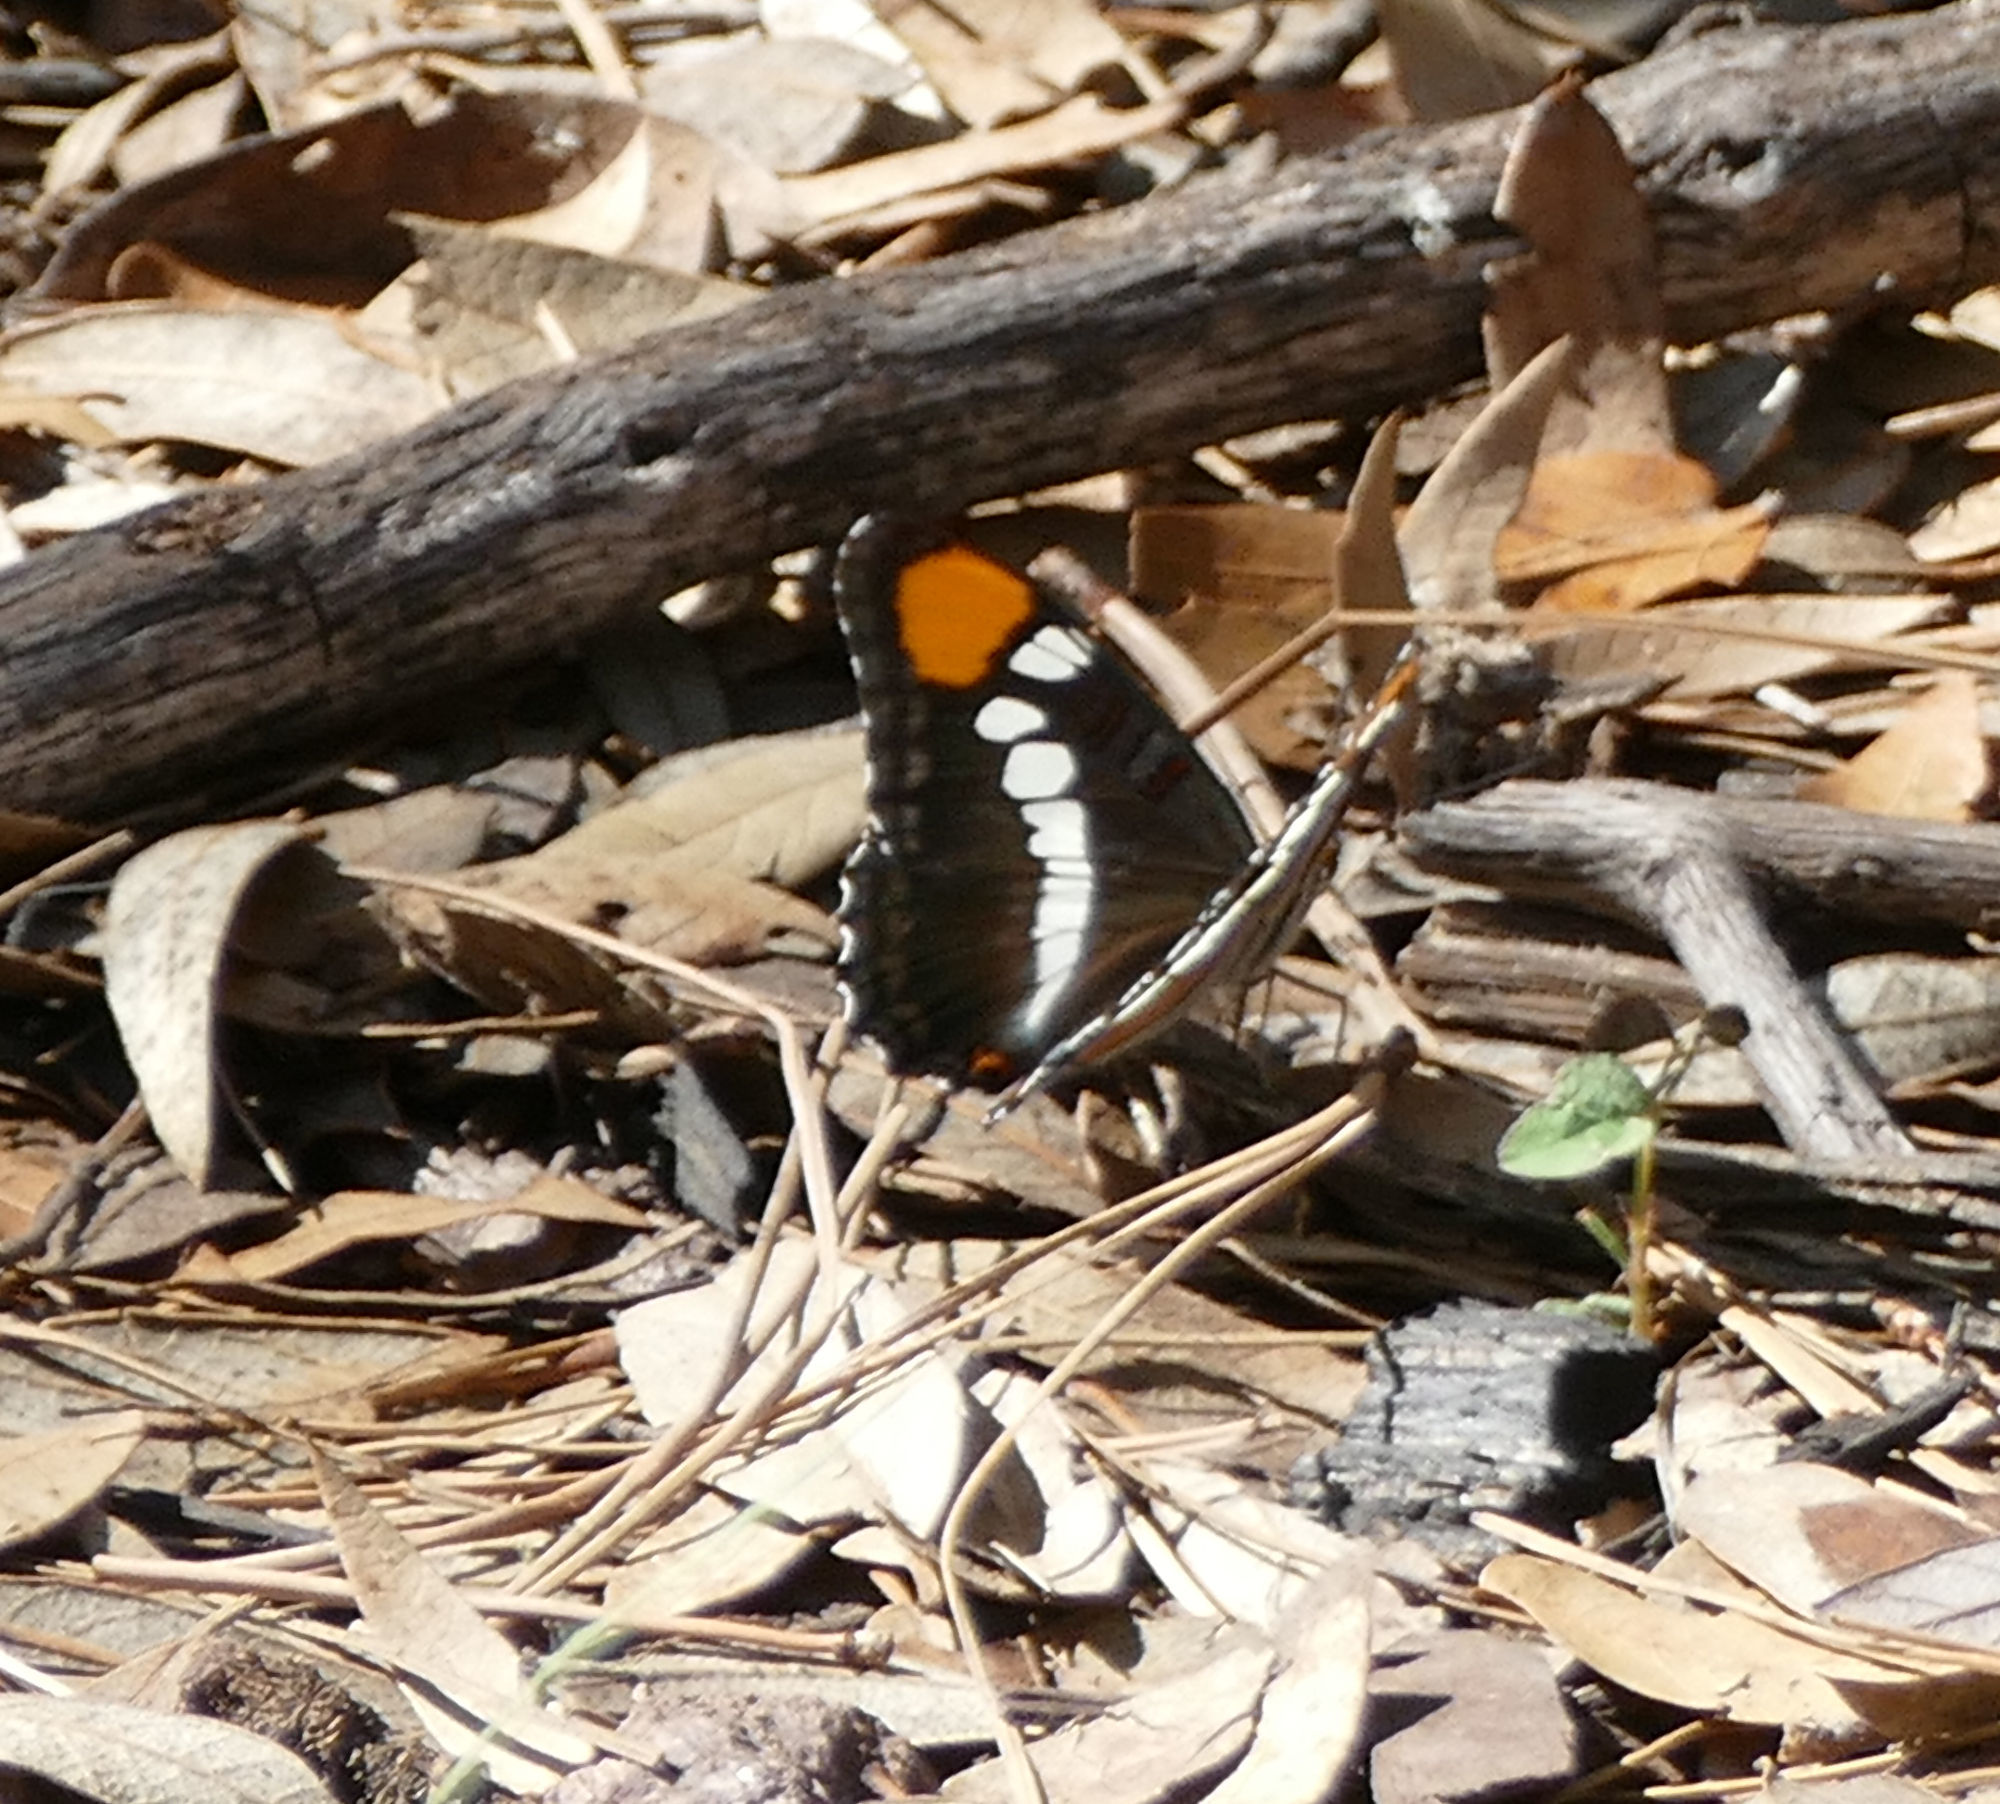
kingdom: Animalia
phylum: Arthropoda
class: Insecta
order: Lepidoptera
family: Nymphalidae
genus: Limenitis
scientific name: Limenitis bredowii
